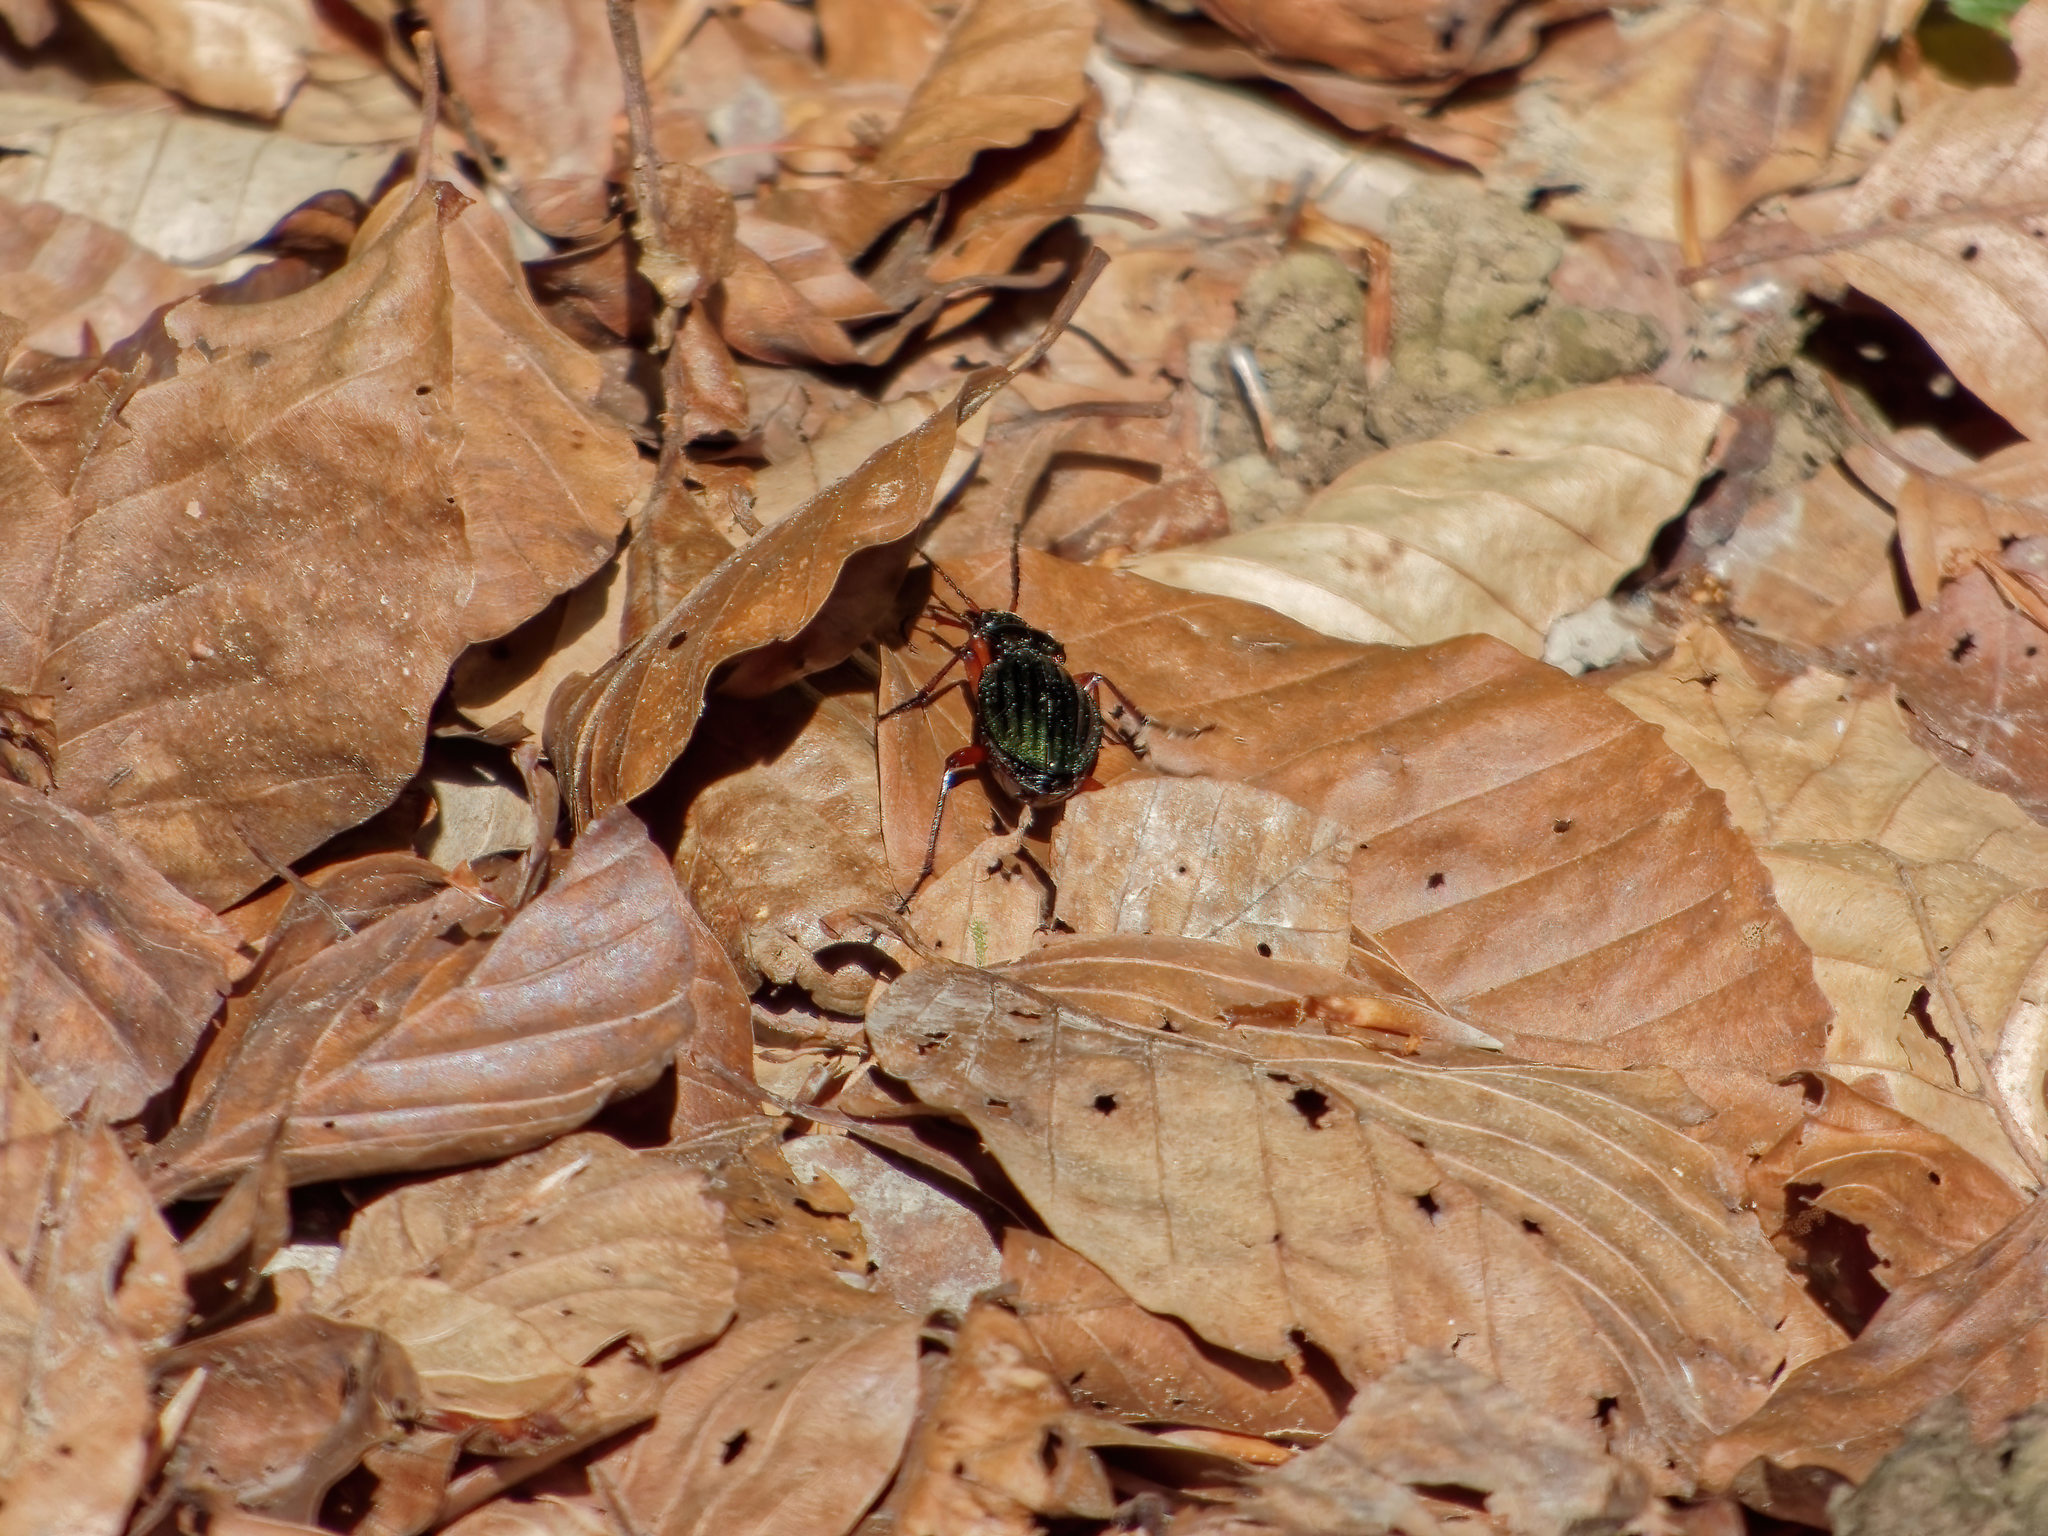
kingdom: Animalia
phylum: Arthropoda
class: Insecta
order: Coleoptera
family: Carabidae
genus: Carabus
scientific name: Carabus auronitens
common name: Carabus auronitens
